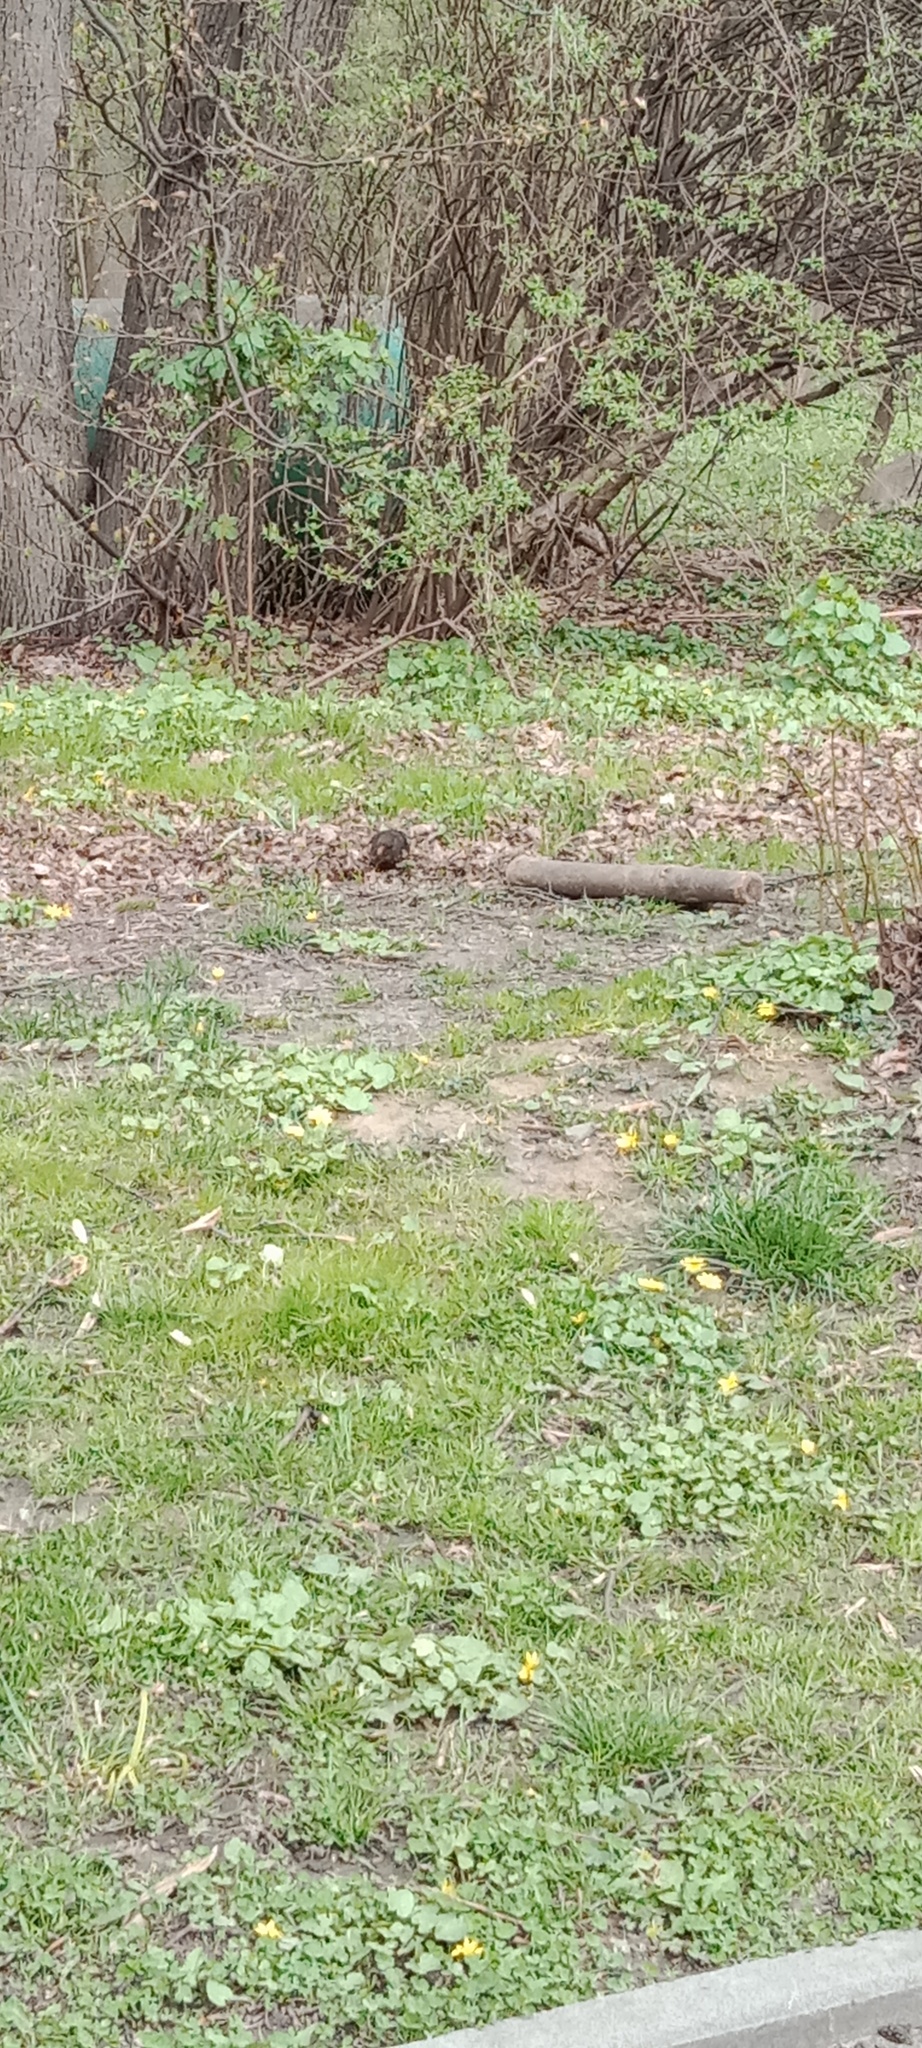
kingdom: Animalia
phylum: Chordata
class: Aves
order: Passeriformes
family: Turdidae
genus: Turdus
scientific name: Turdus merula
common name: Common blackbird
